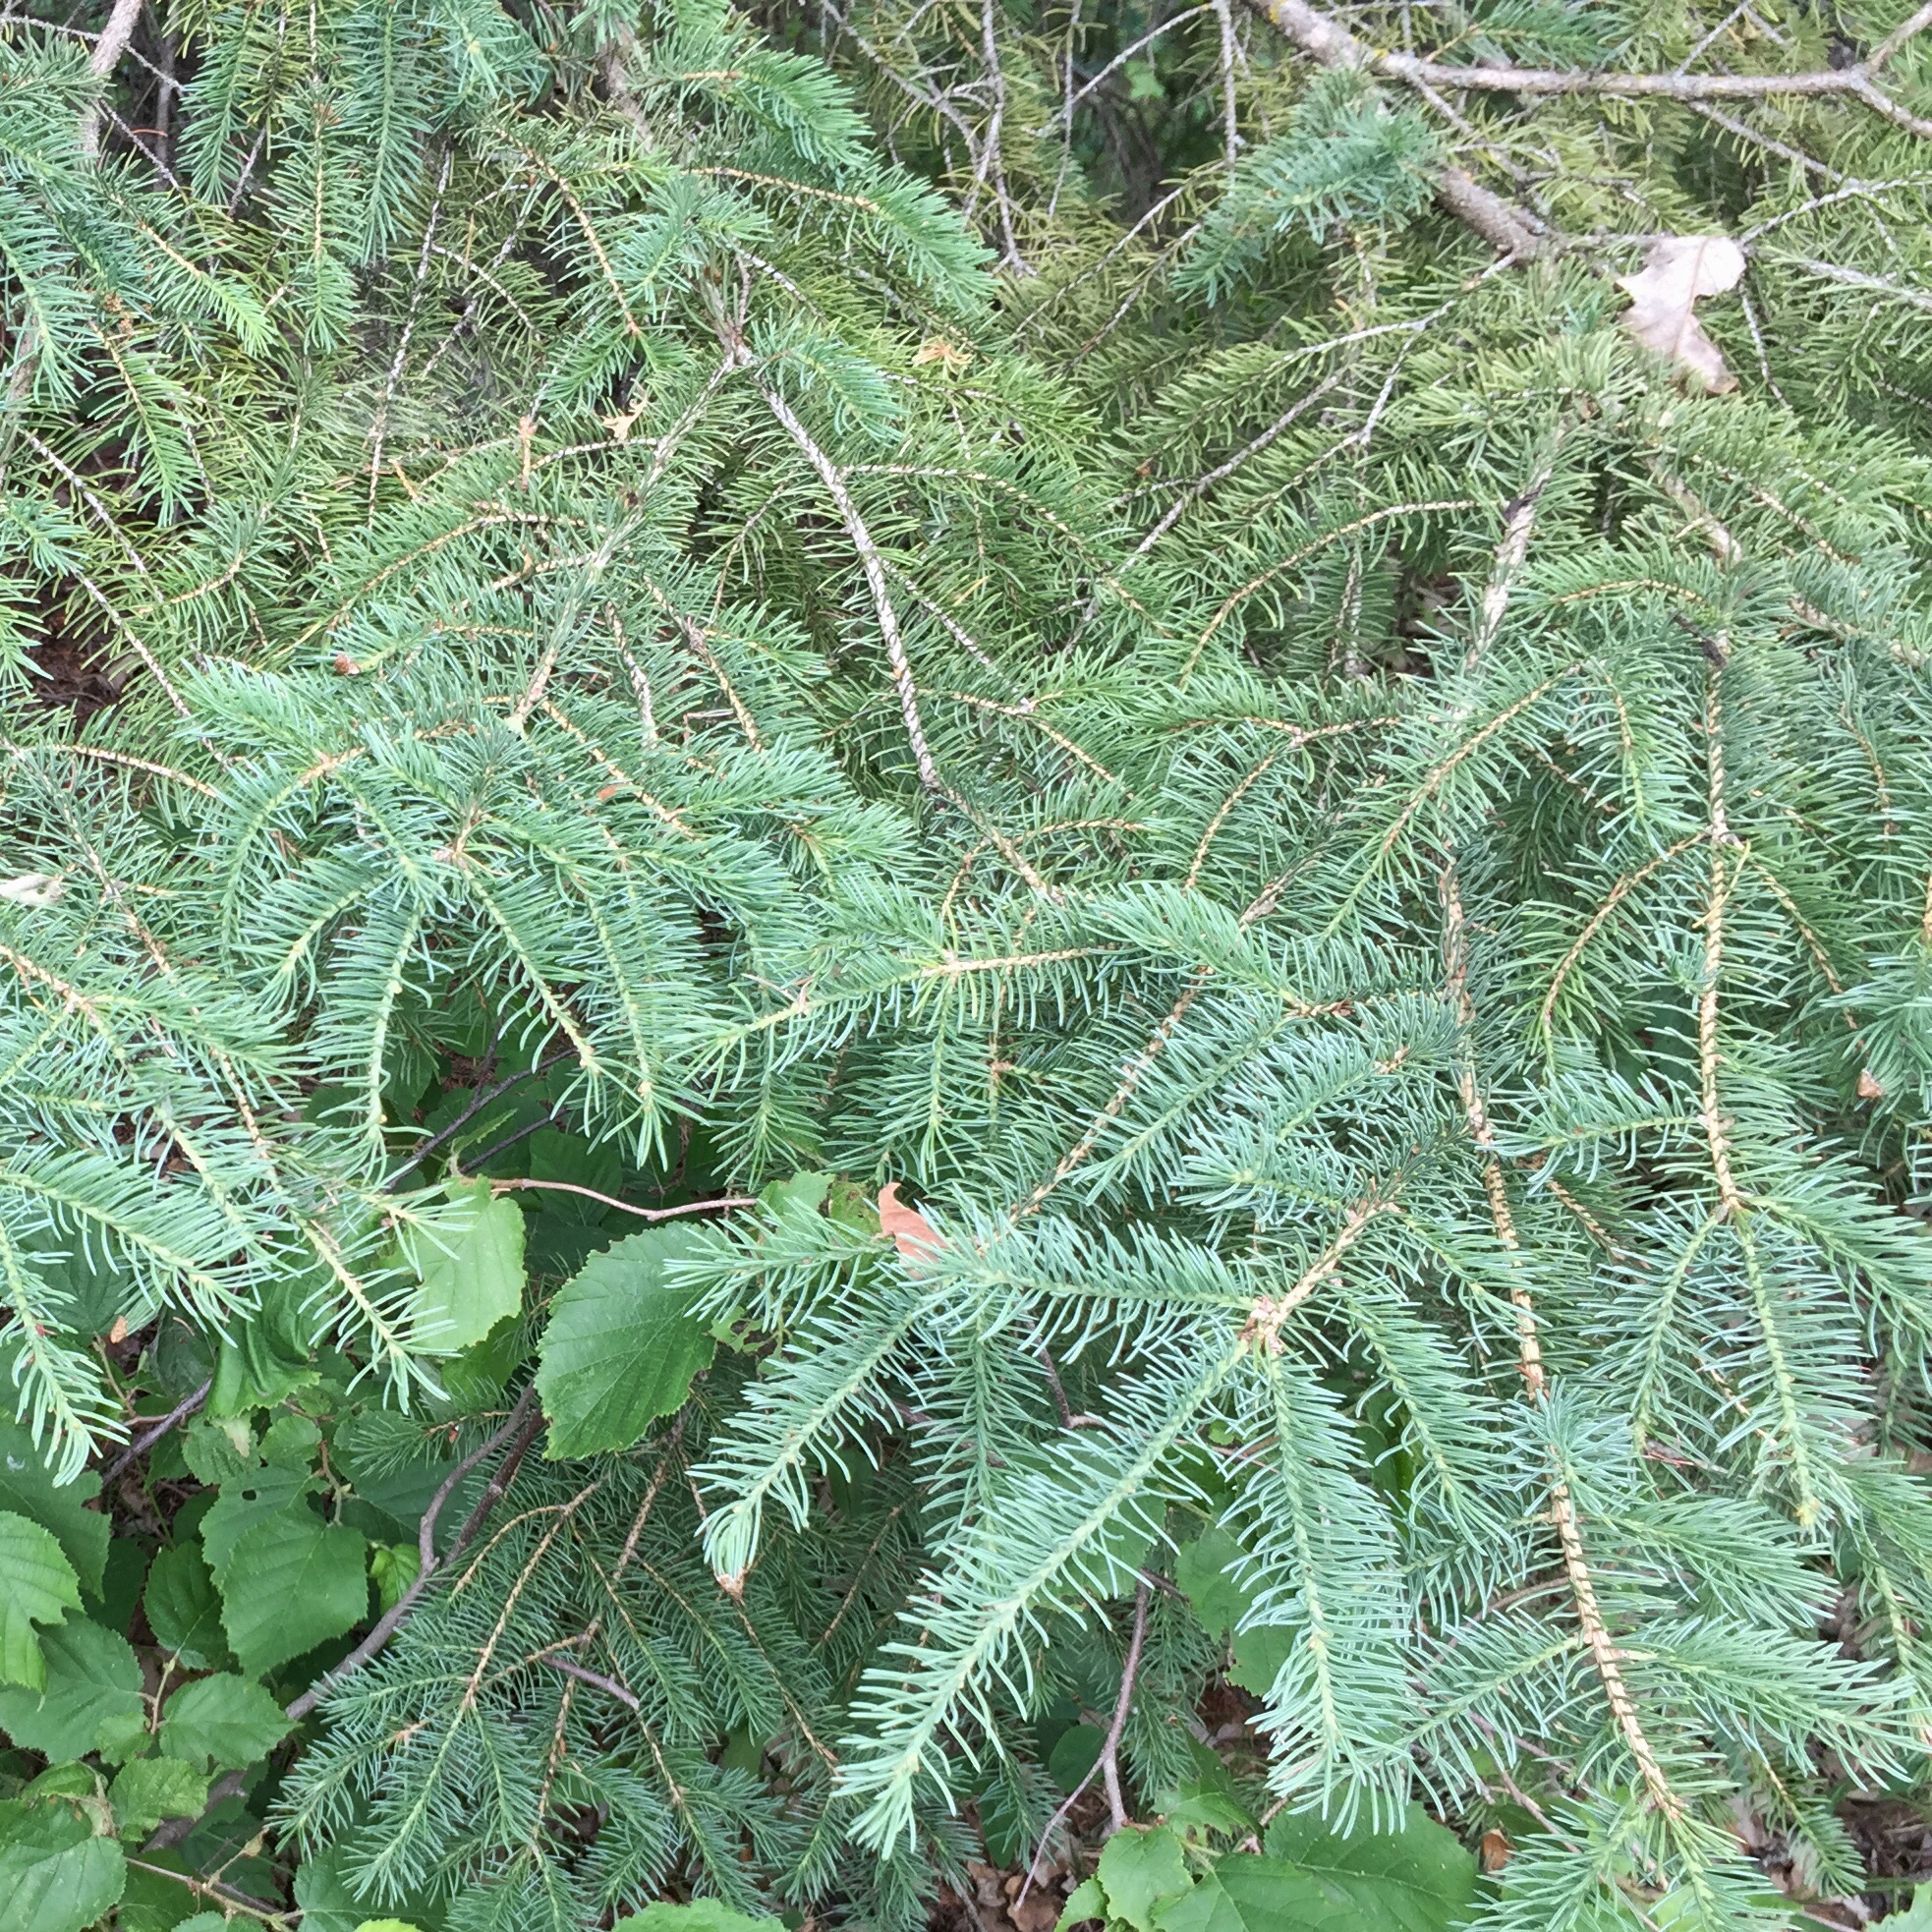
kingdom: Plantae
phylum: Tracheophyta
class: Pinopsida
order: Pinales
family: Pinaceae
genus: Picea
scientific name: Picea glauca
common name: White spruce
